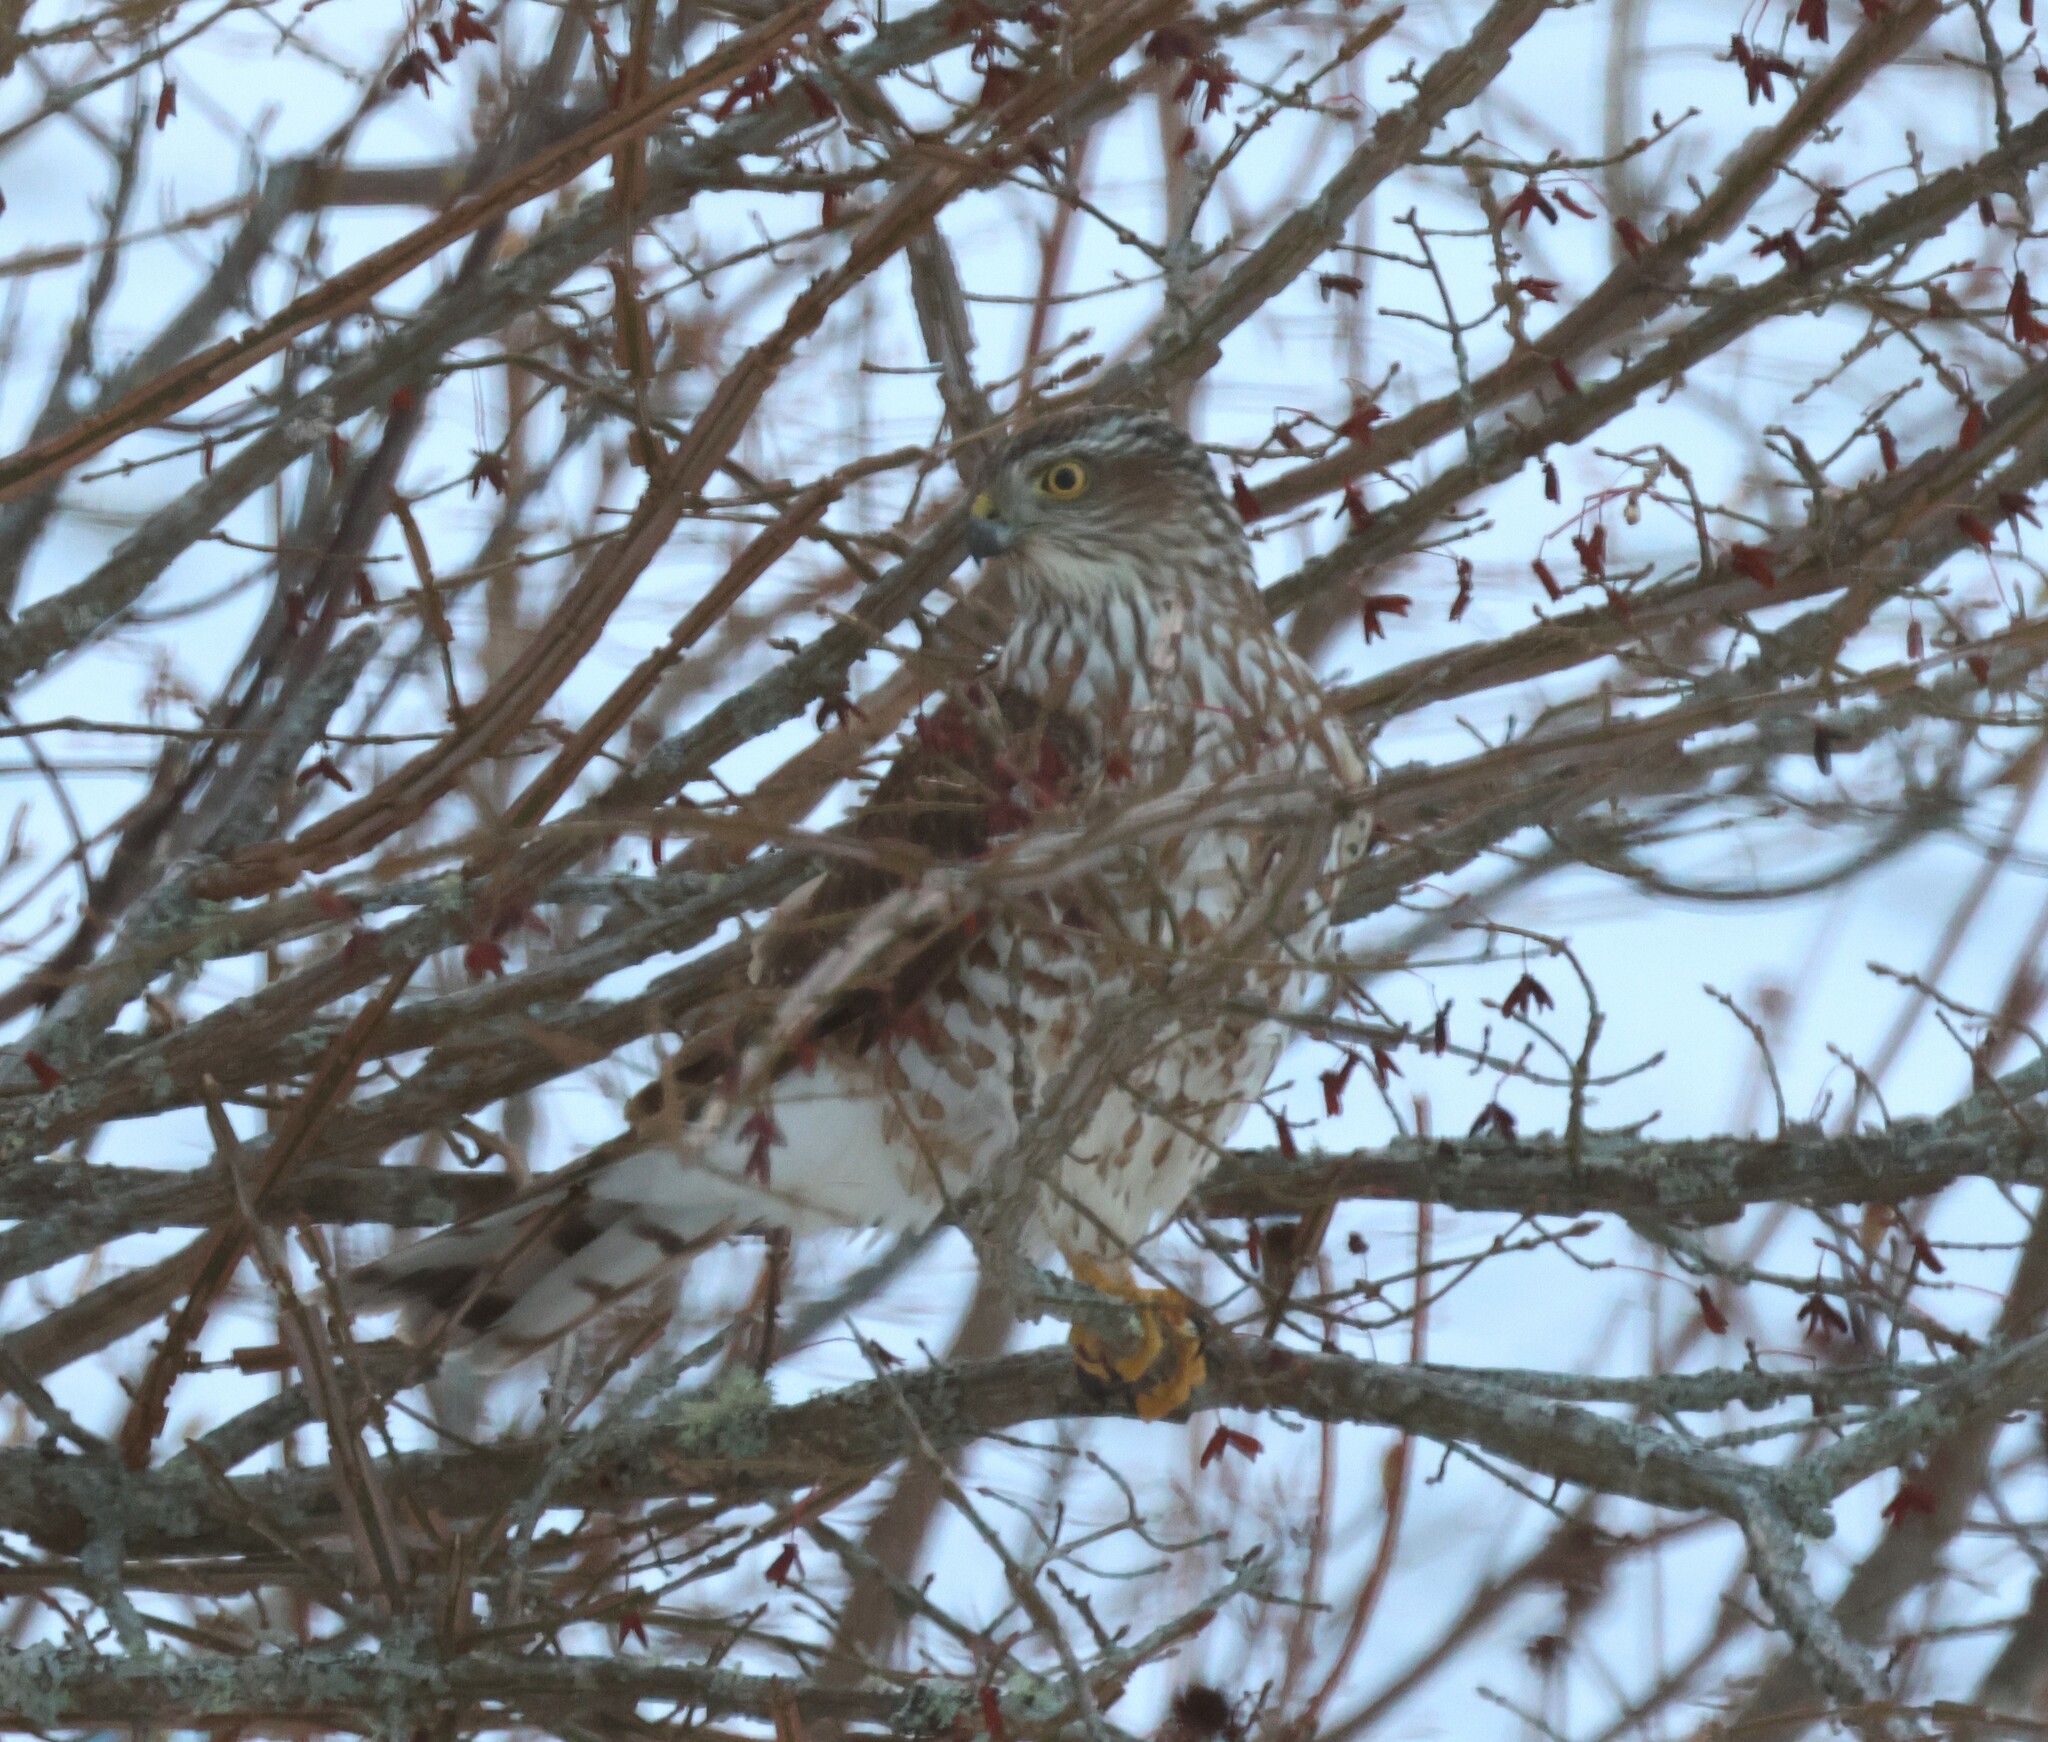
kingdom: Animalia
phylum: Chordata
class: Aves
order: Accipitriformes
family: Accipitridae
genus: Accipiter
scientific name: Accipiter striatus
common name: Sharp-shinned hawk
